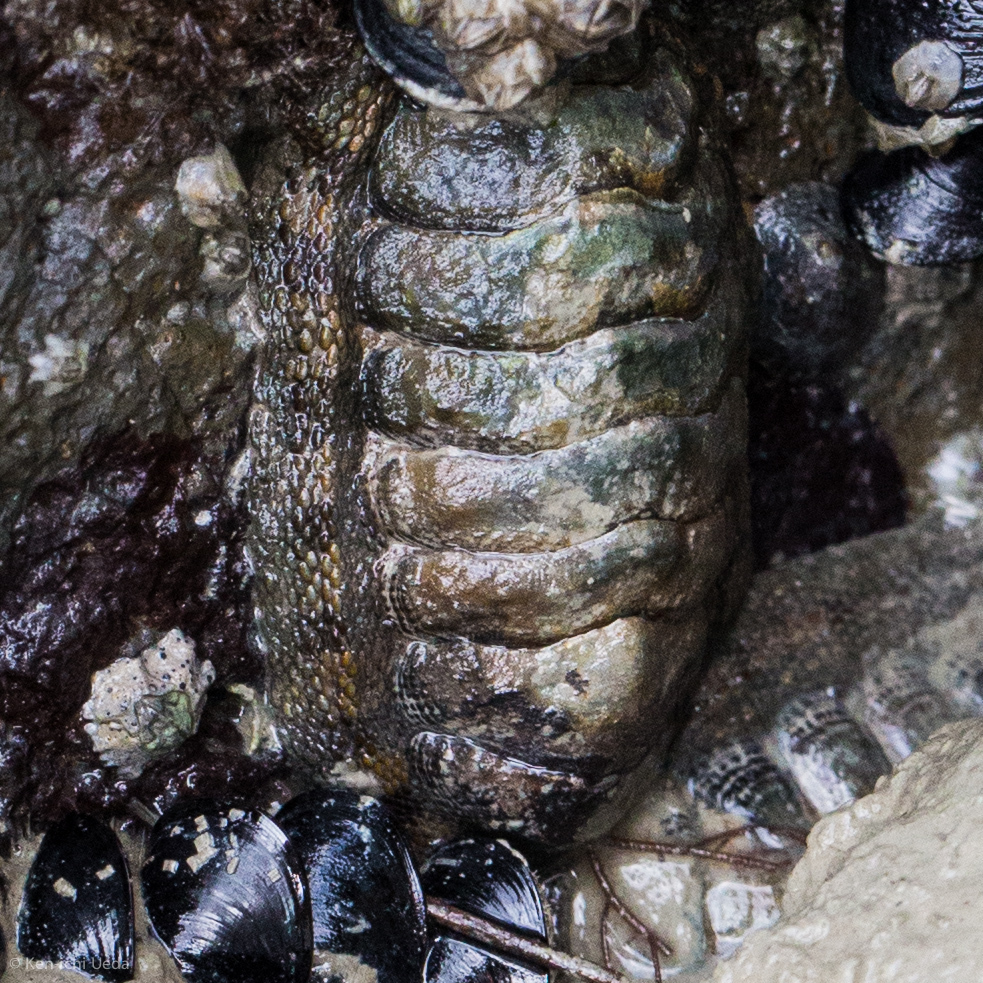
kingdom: Animalia
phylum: Mollusca
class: Polyplacophora
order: Chitonida
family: Chitonidae
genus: Sypharochiton
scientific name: Sypharochiton pelliserpentis
